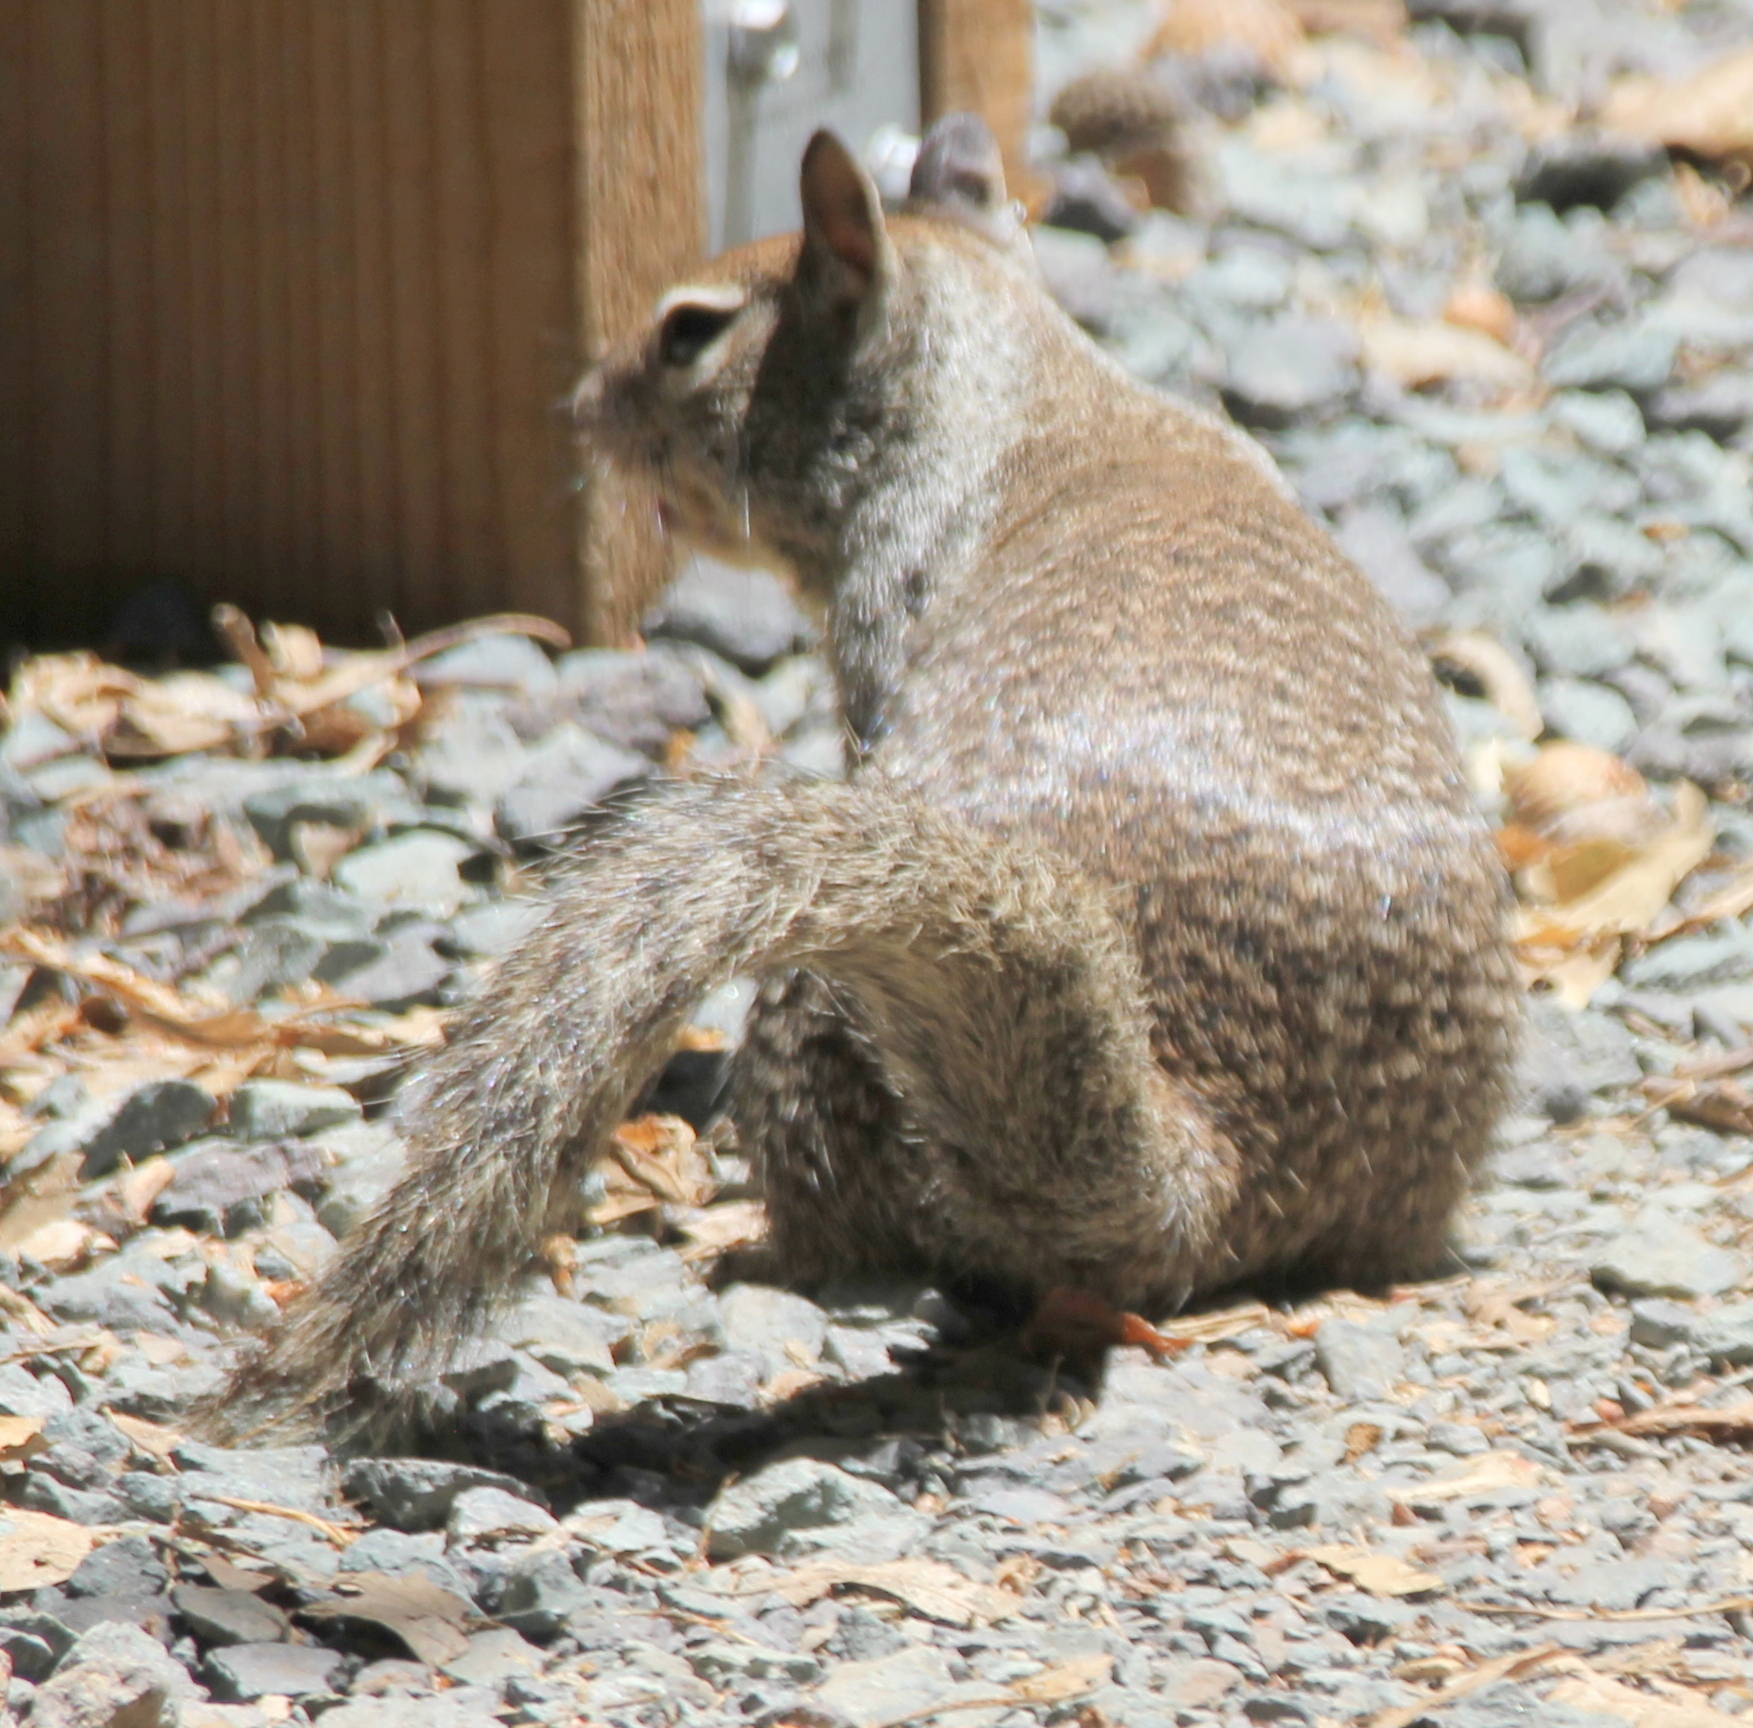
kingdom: Animalia
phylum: Chordata
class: Mammalia
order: Rodentia
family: Sciuridae
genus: Otospermophilus
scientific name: Otospermophilus beecheyi
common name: California ground squirrel
